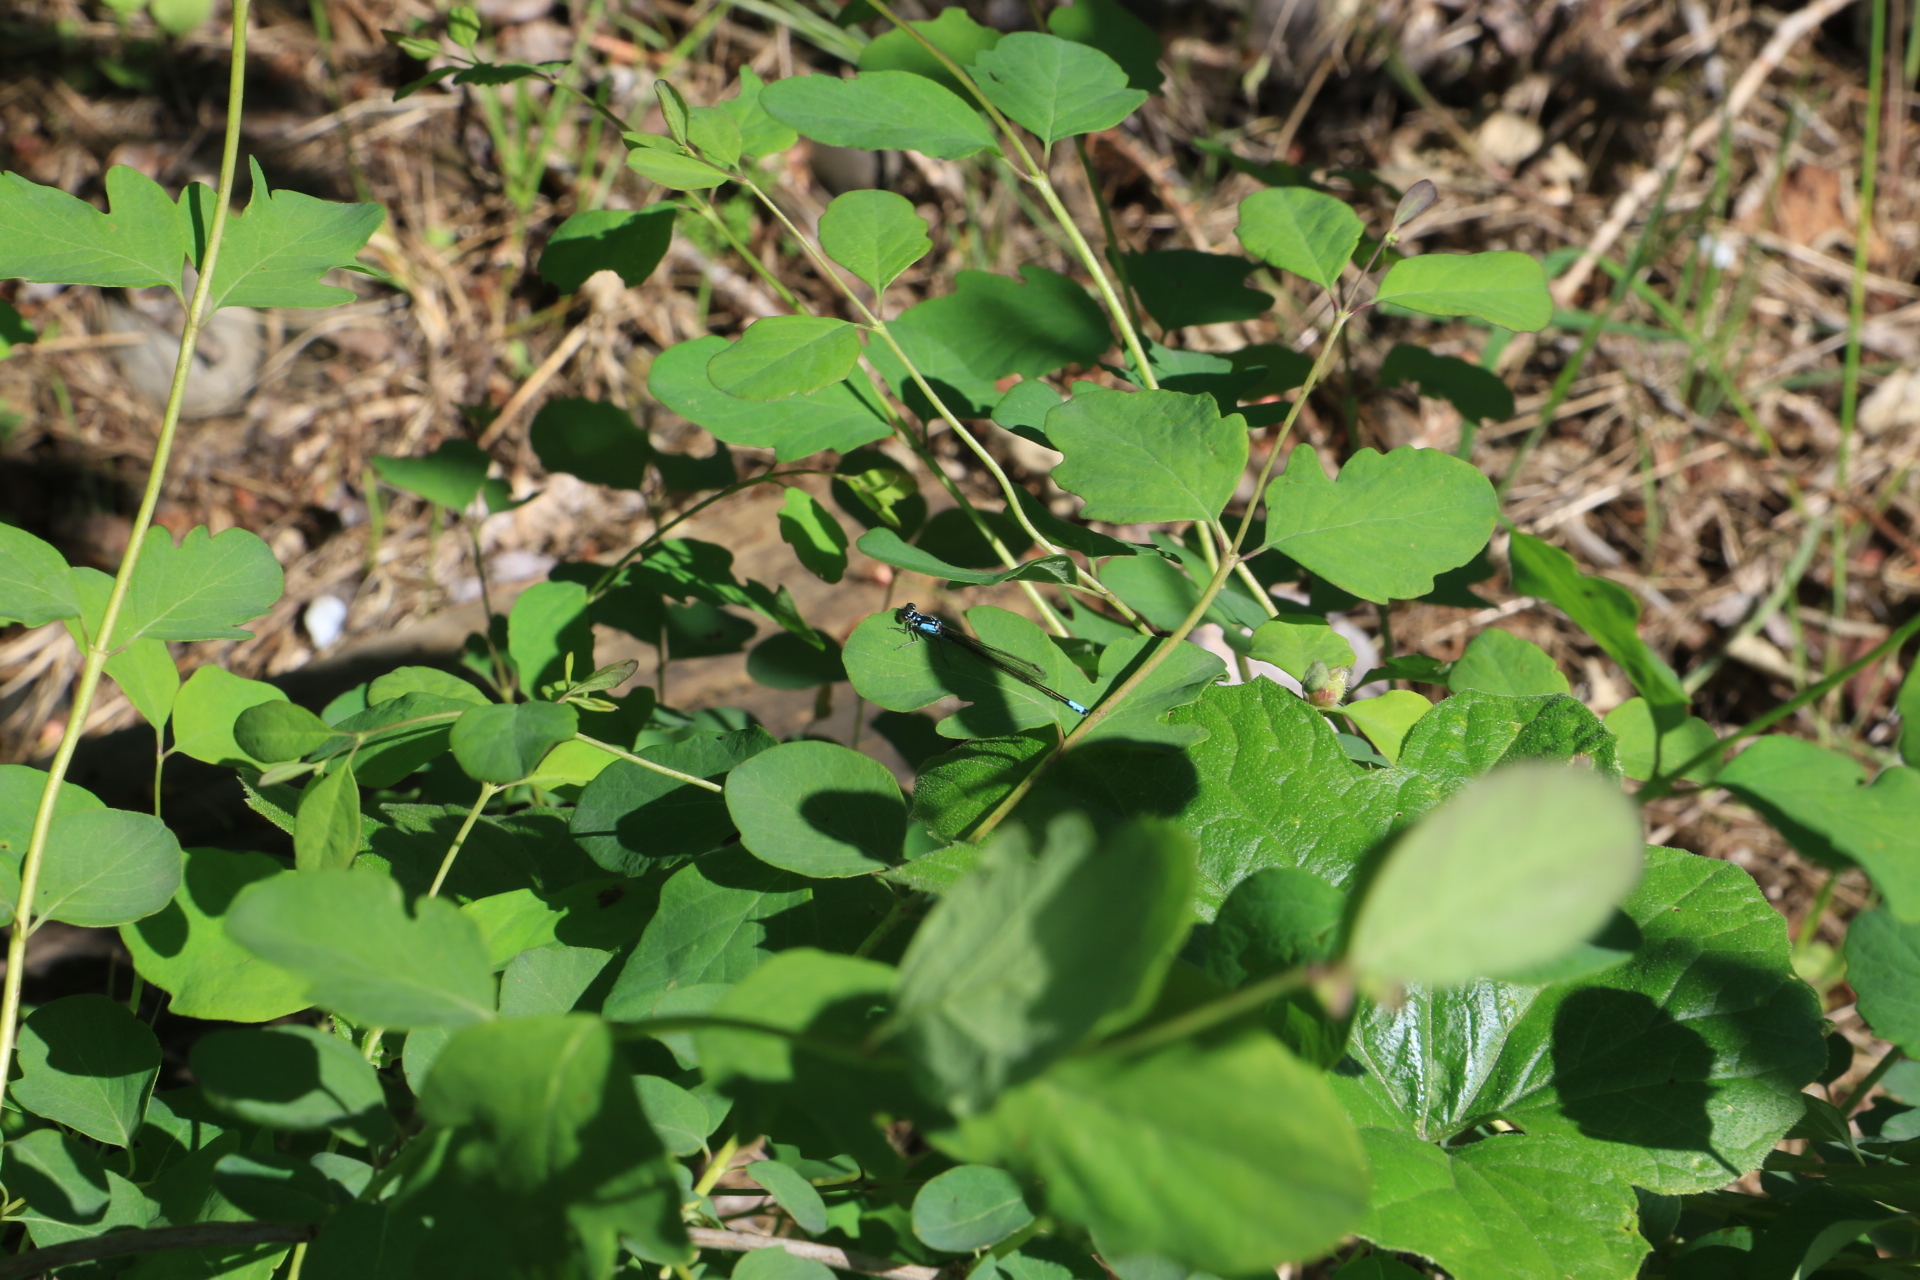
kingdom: Animalia
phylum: Arthropoda
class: Insecta
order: Odonata
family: Coenagrionidae
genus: Ischnura
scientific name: Ischnura cervula
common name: Pacific forktail
